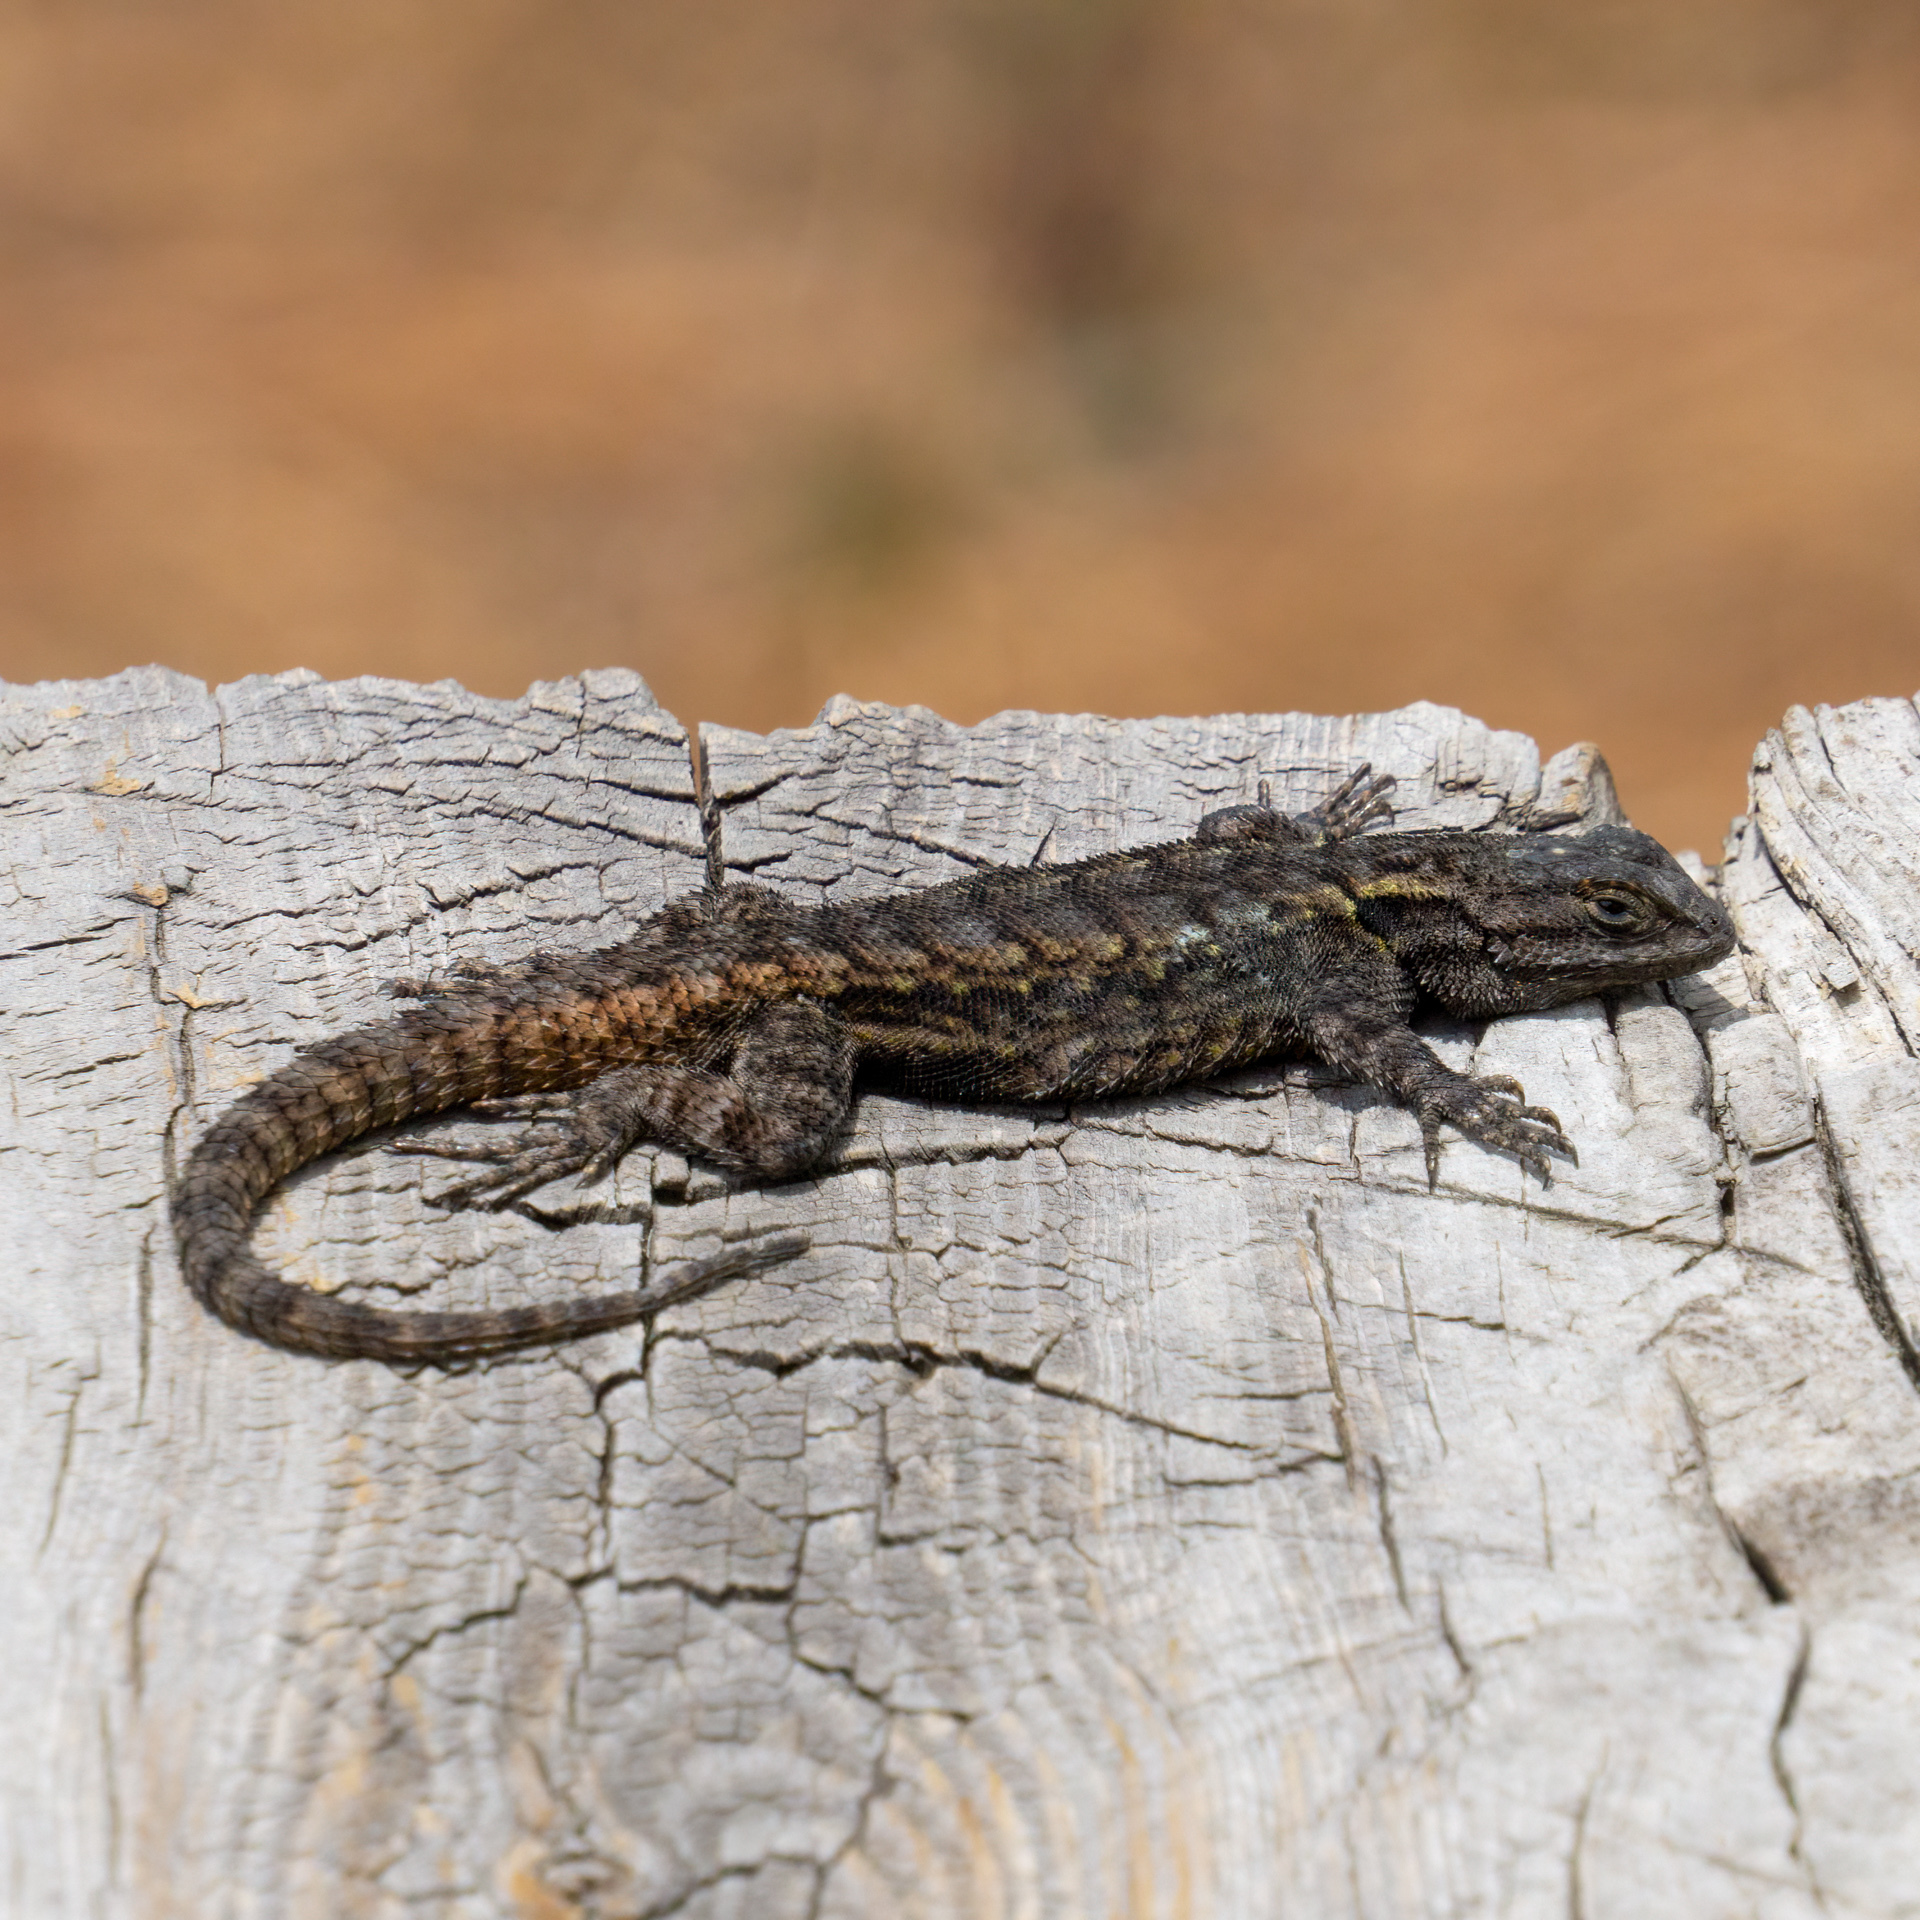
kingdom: Animalia
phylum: Chordata
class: Squamata
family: Phrynosomatidae
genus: Sceloporus
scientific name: Sceloporus anahuacus
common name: Anahuacan bunchgrass lizard
